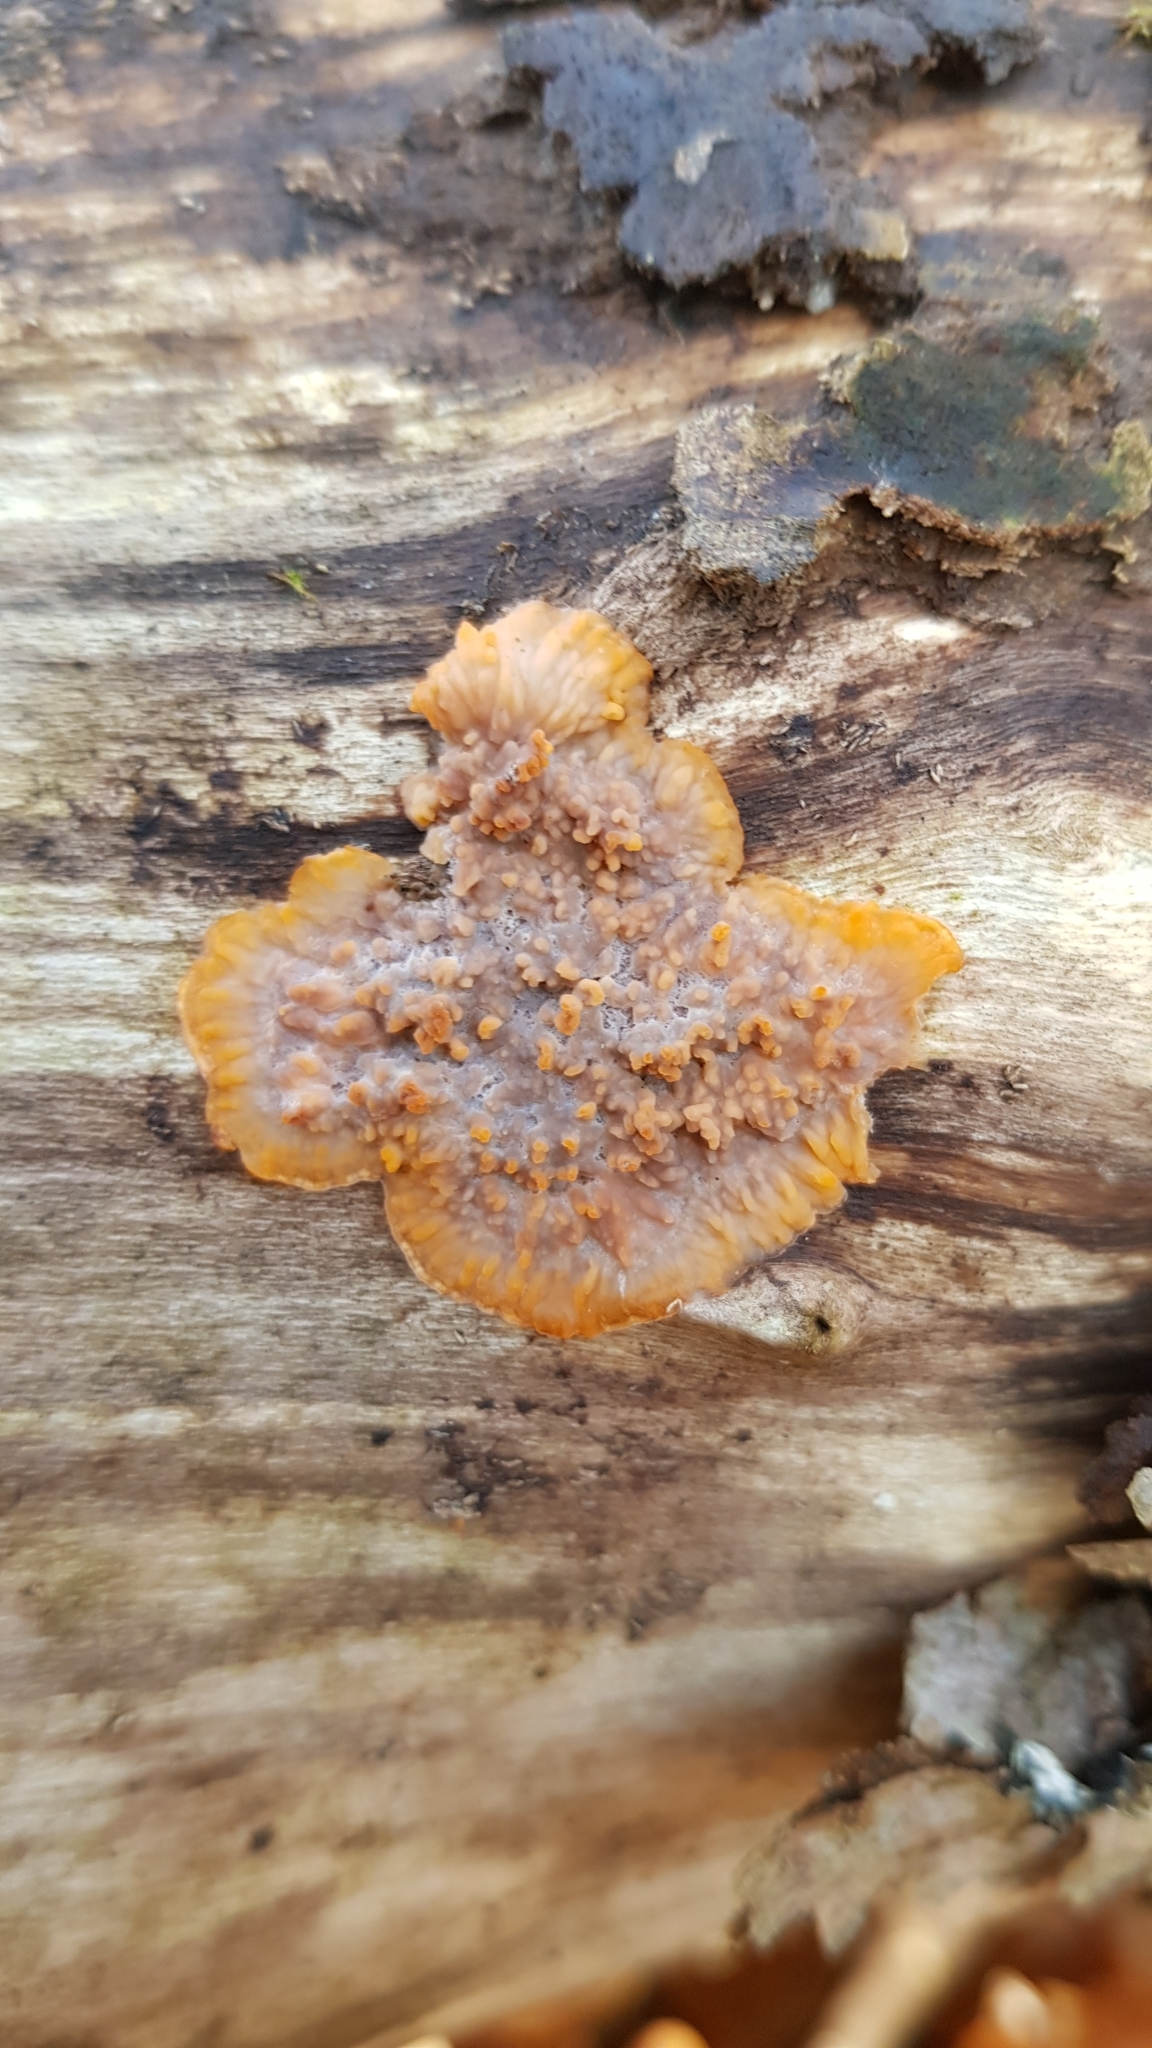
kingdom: Fungi
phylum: Basidiomycota
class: Agaricomycetes
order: Polyporales
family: Meruliaceae
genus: Phlebia
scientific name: Phlebia radiata
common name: Wrinkled crust
